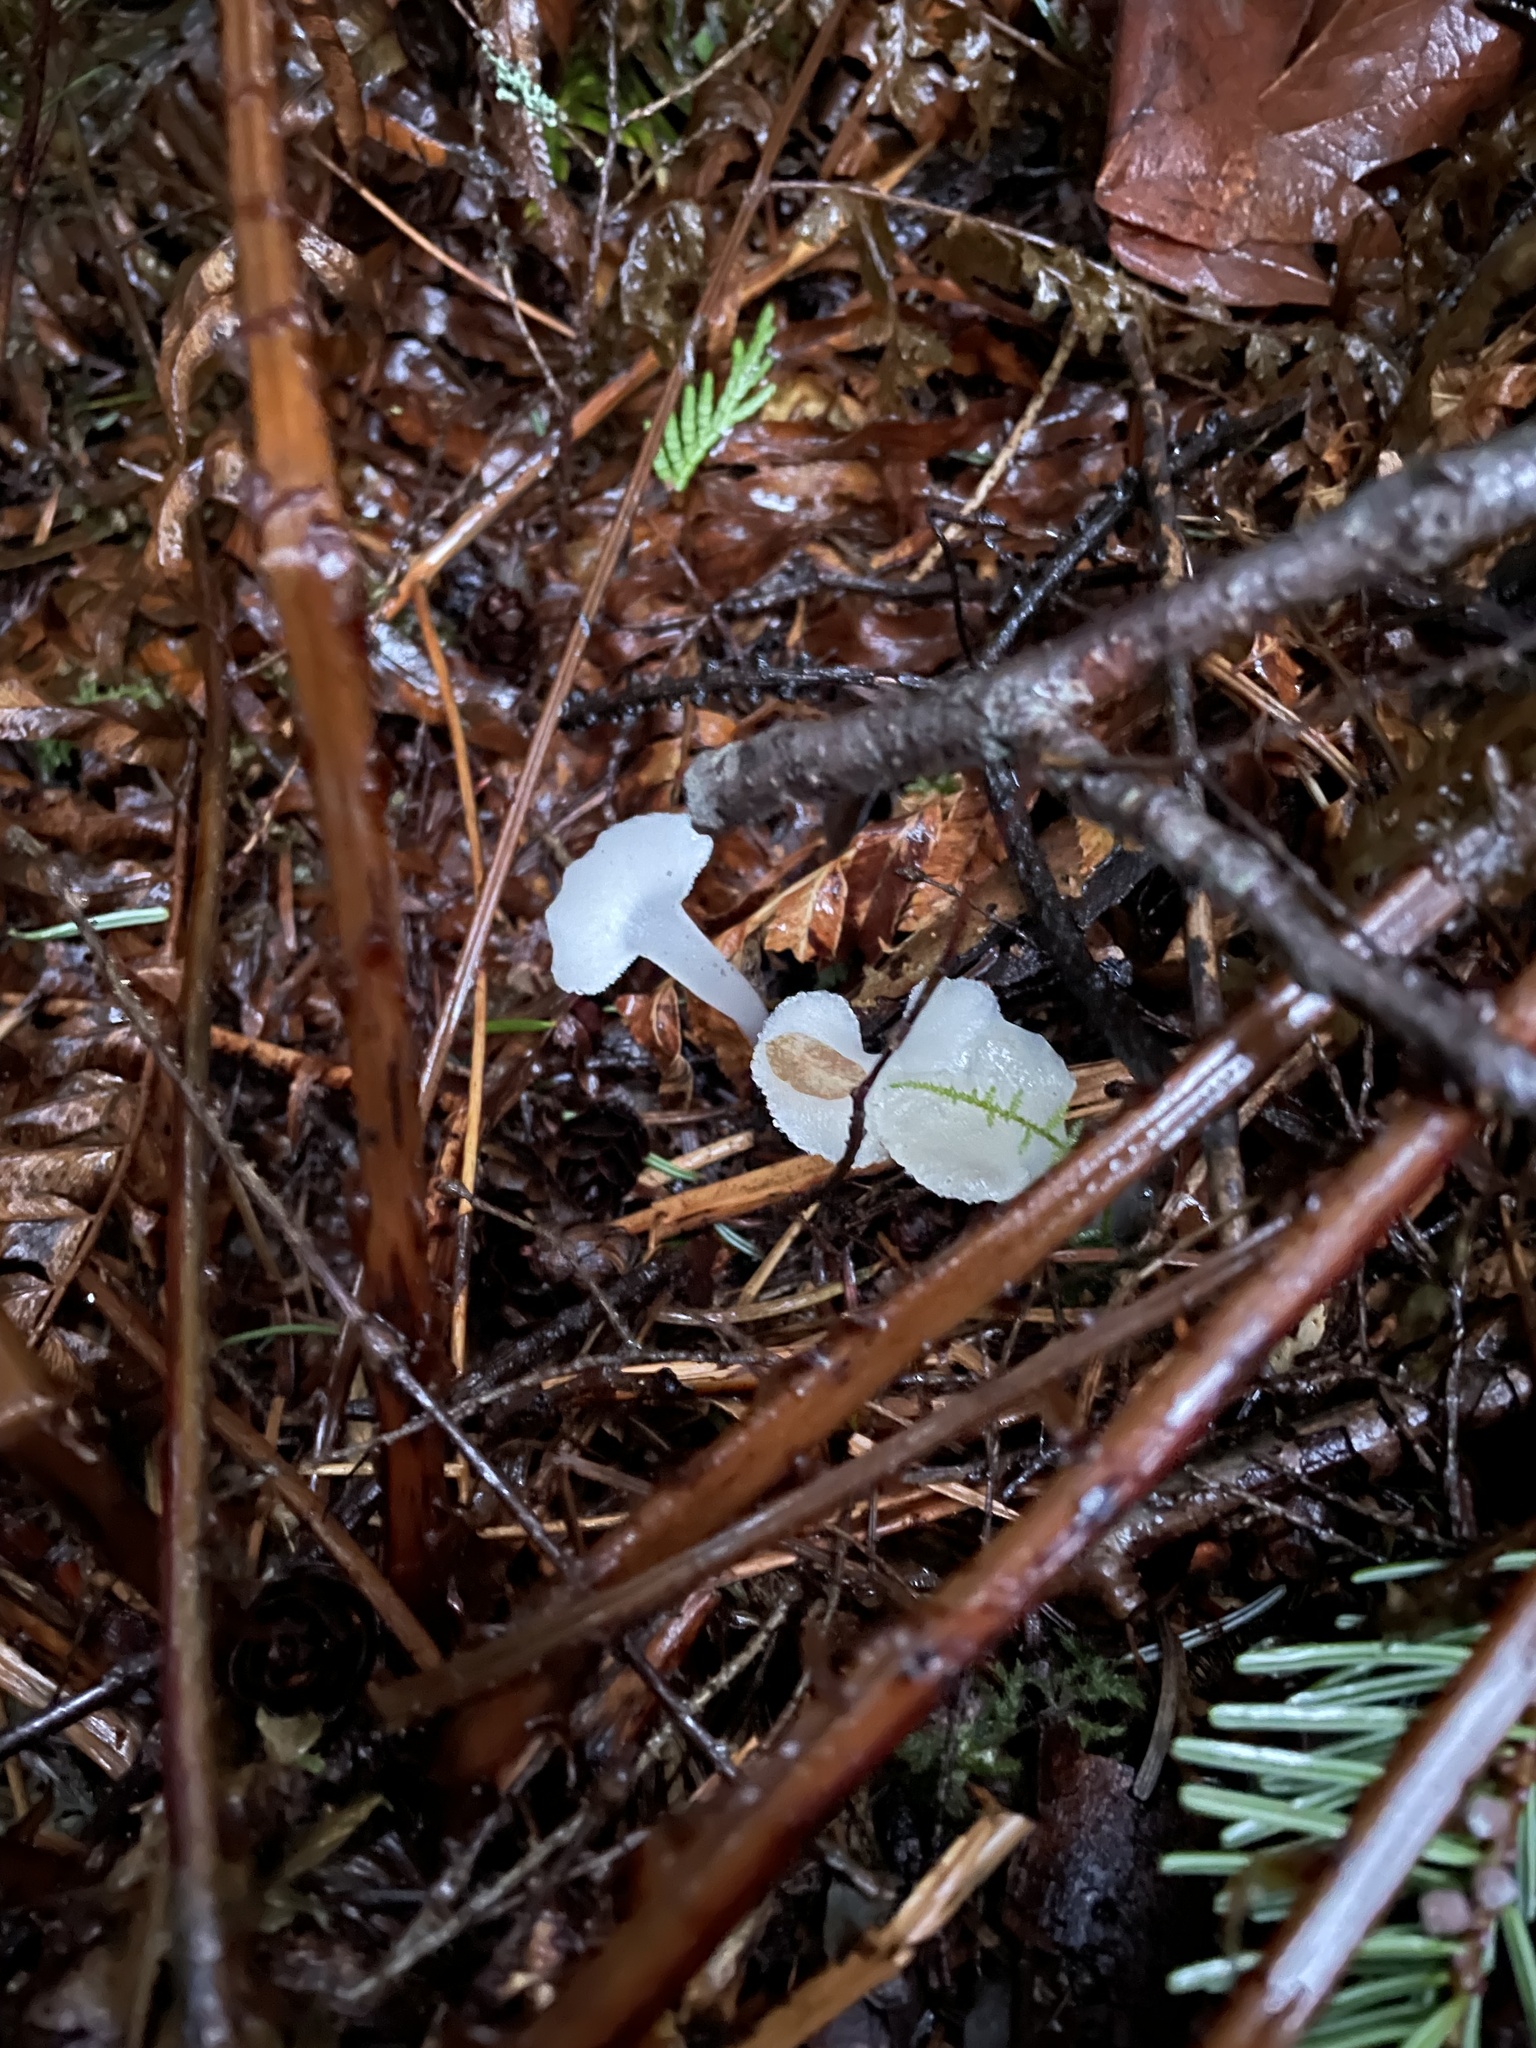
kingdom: Fungi
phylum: Basidiomycota
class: Agaricomycetes
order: Auriculariales
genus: Pseudohydnum
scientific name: Pseudohydnum gelatinosum
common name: Jelly tongue
